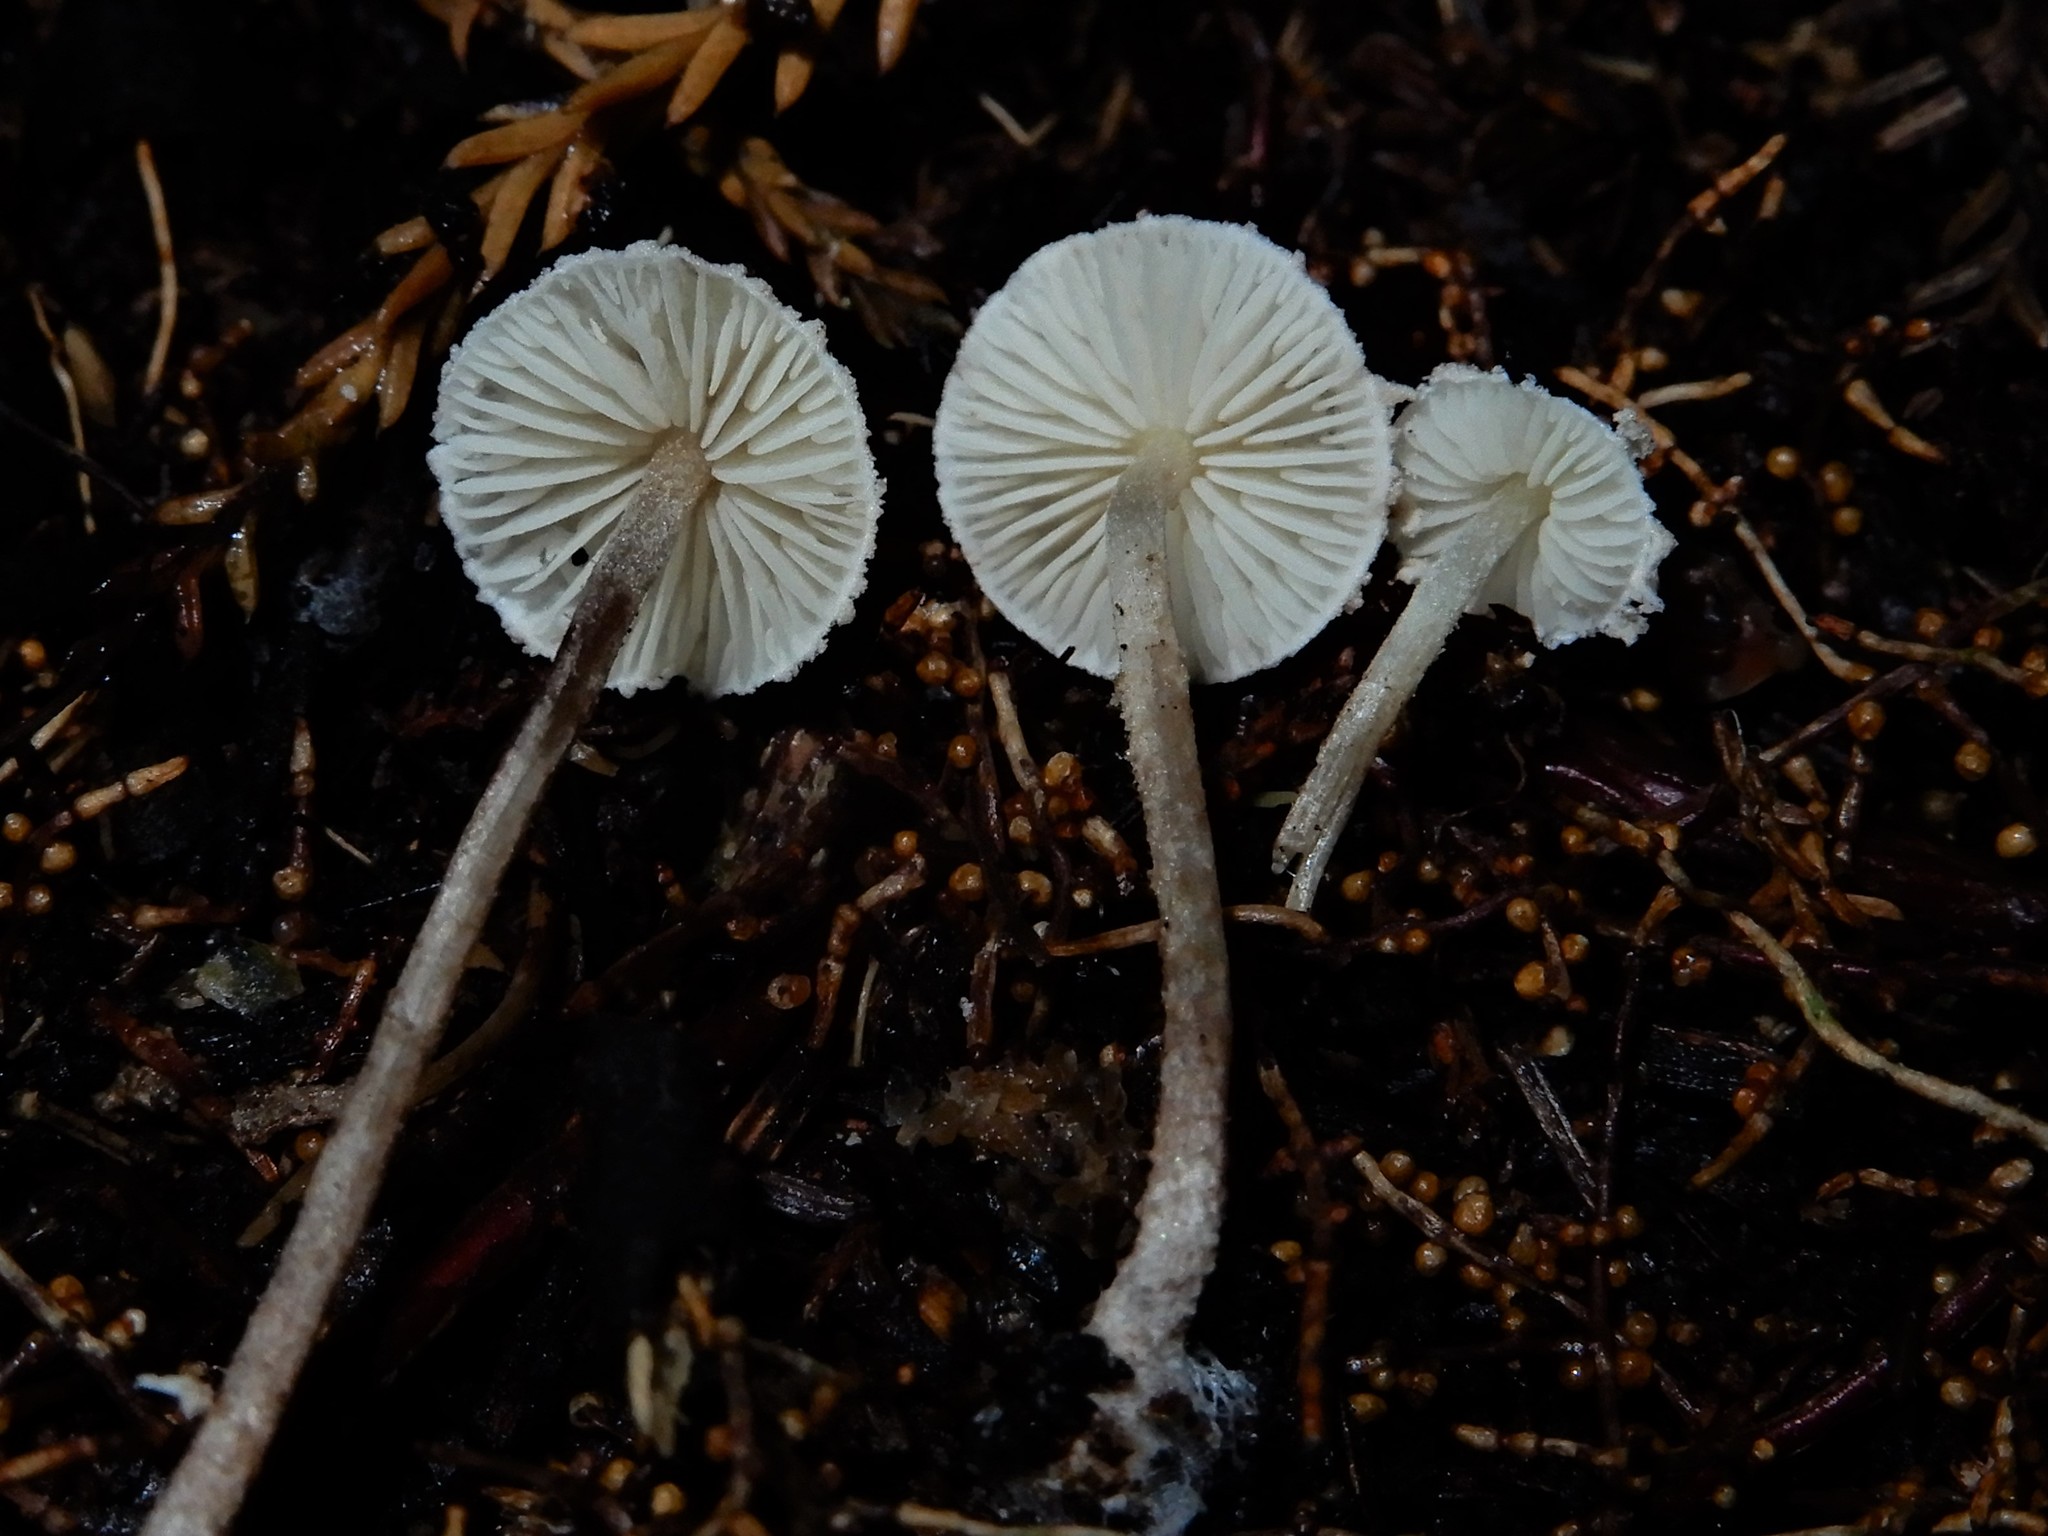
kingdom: Fungi
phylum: Basidiomycota
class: Agaricomycetes
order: Agaricales
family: Agaricaceae
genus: Cystolepiota
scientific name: Cystolepiota
